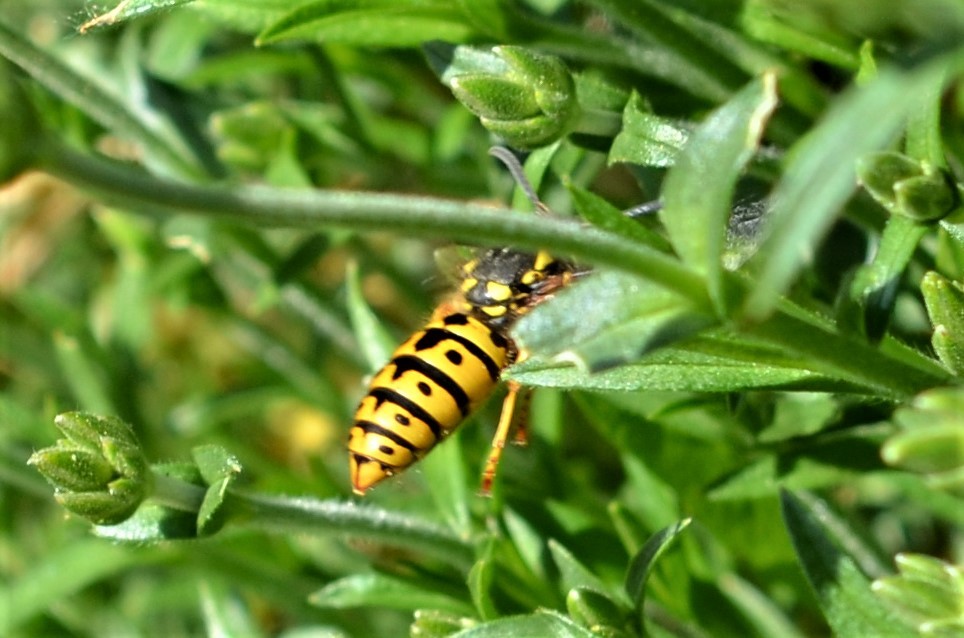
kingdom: Animalia
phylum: Arthropoda
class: Insecta
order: Hymenoptera
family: Vespidae
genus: Vespula
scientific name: Vespula germanica
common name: German wasp
